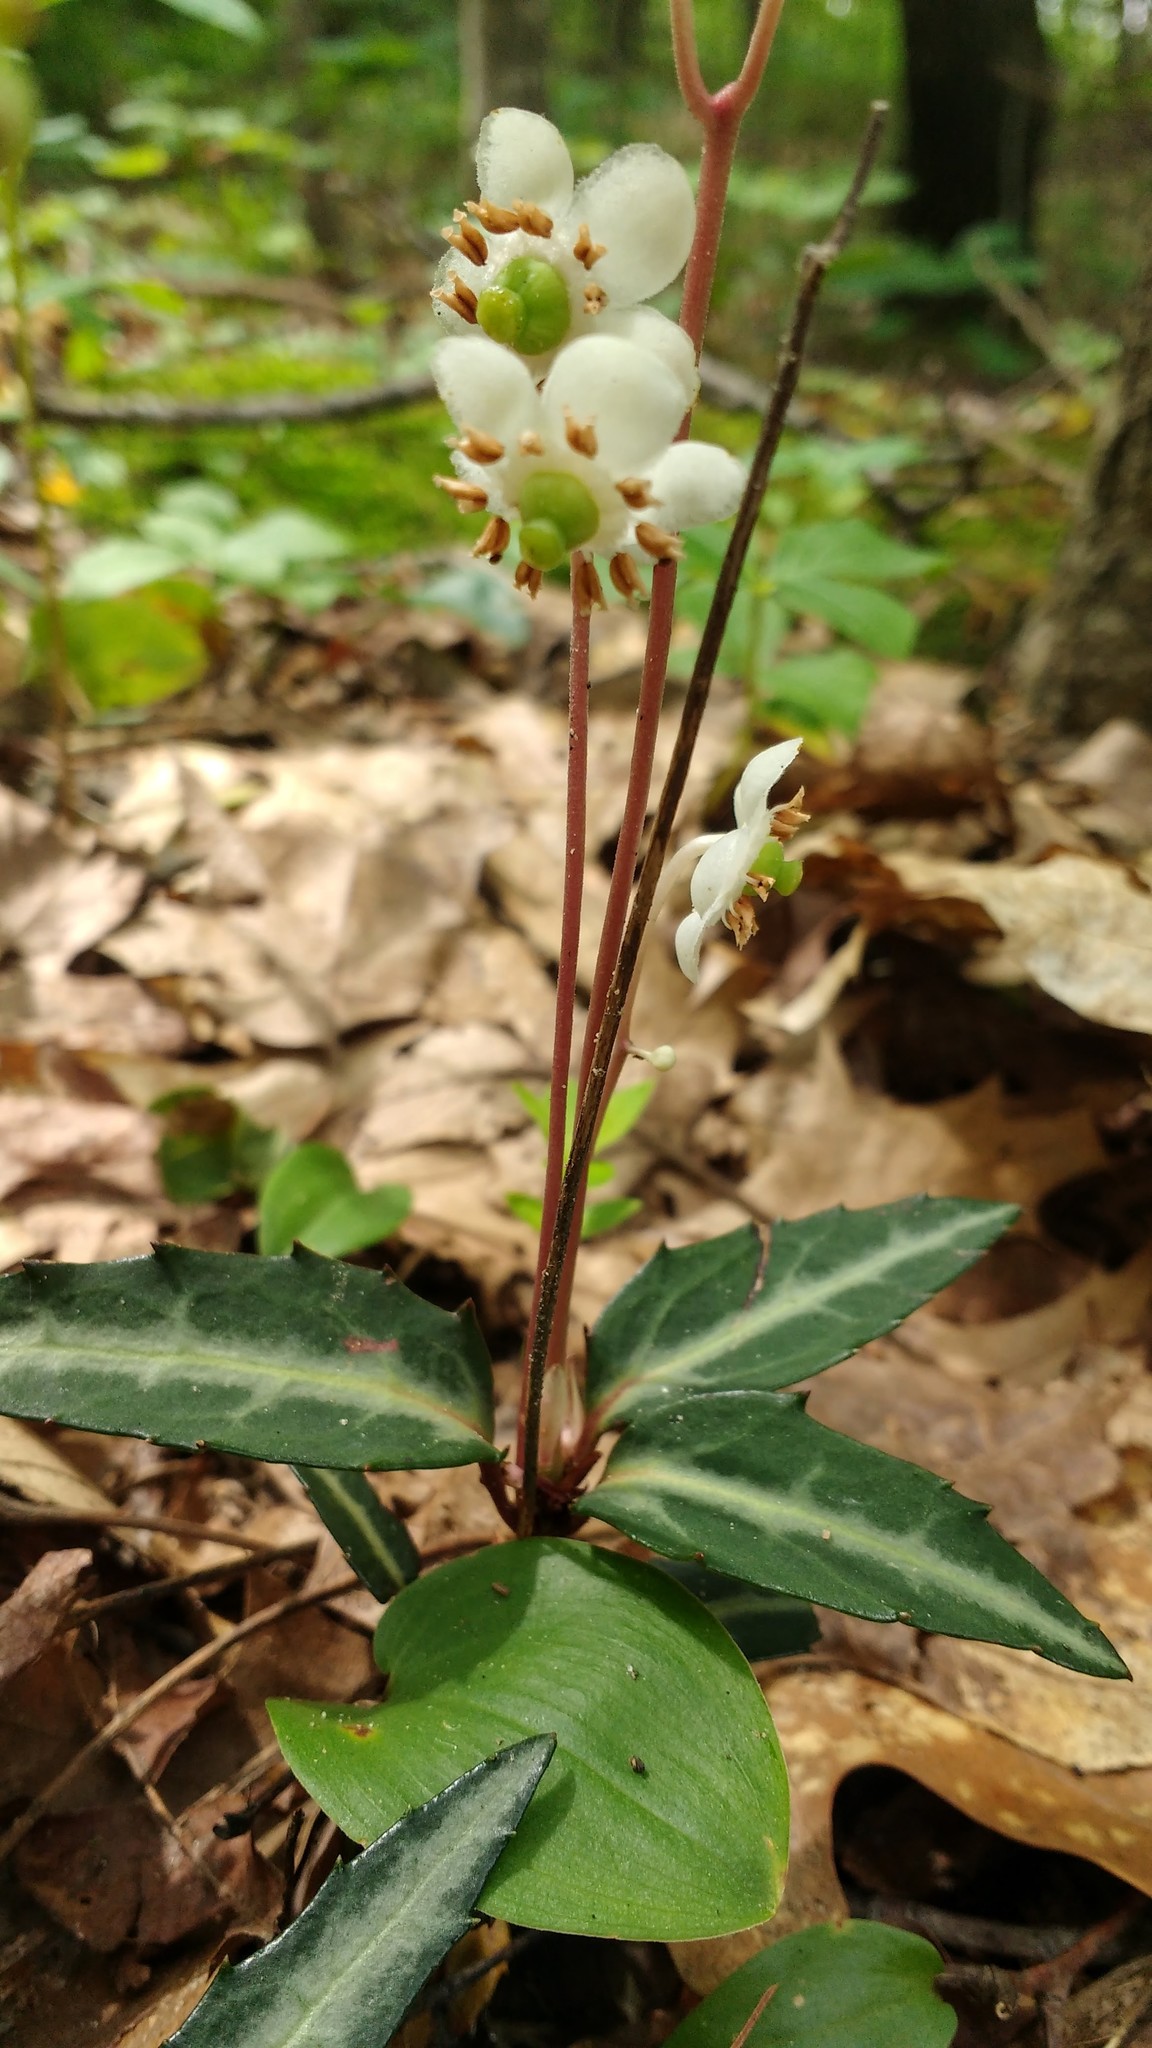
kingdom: Plantae
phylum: Tracheophyta
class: Magnoliopsida
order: Ericales
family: Ericaceae
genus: Chimaphila
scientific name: Chimaphila maculata
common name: Spotted pipsissewa
